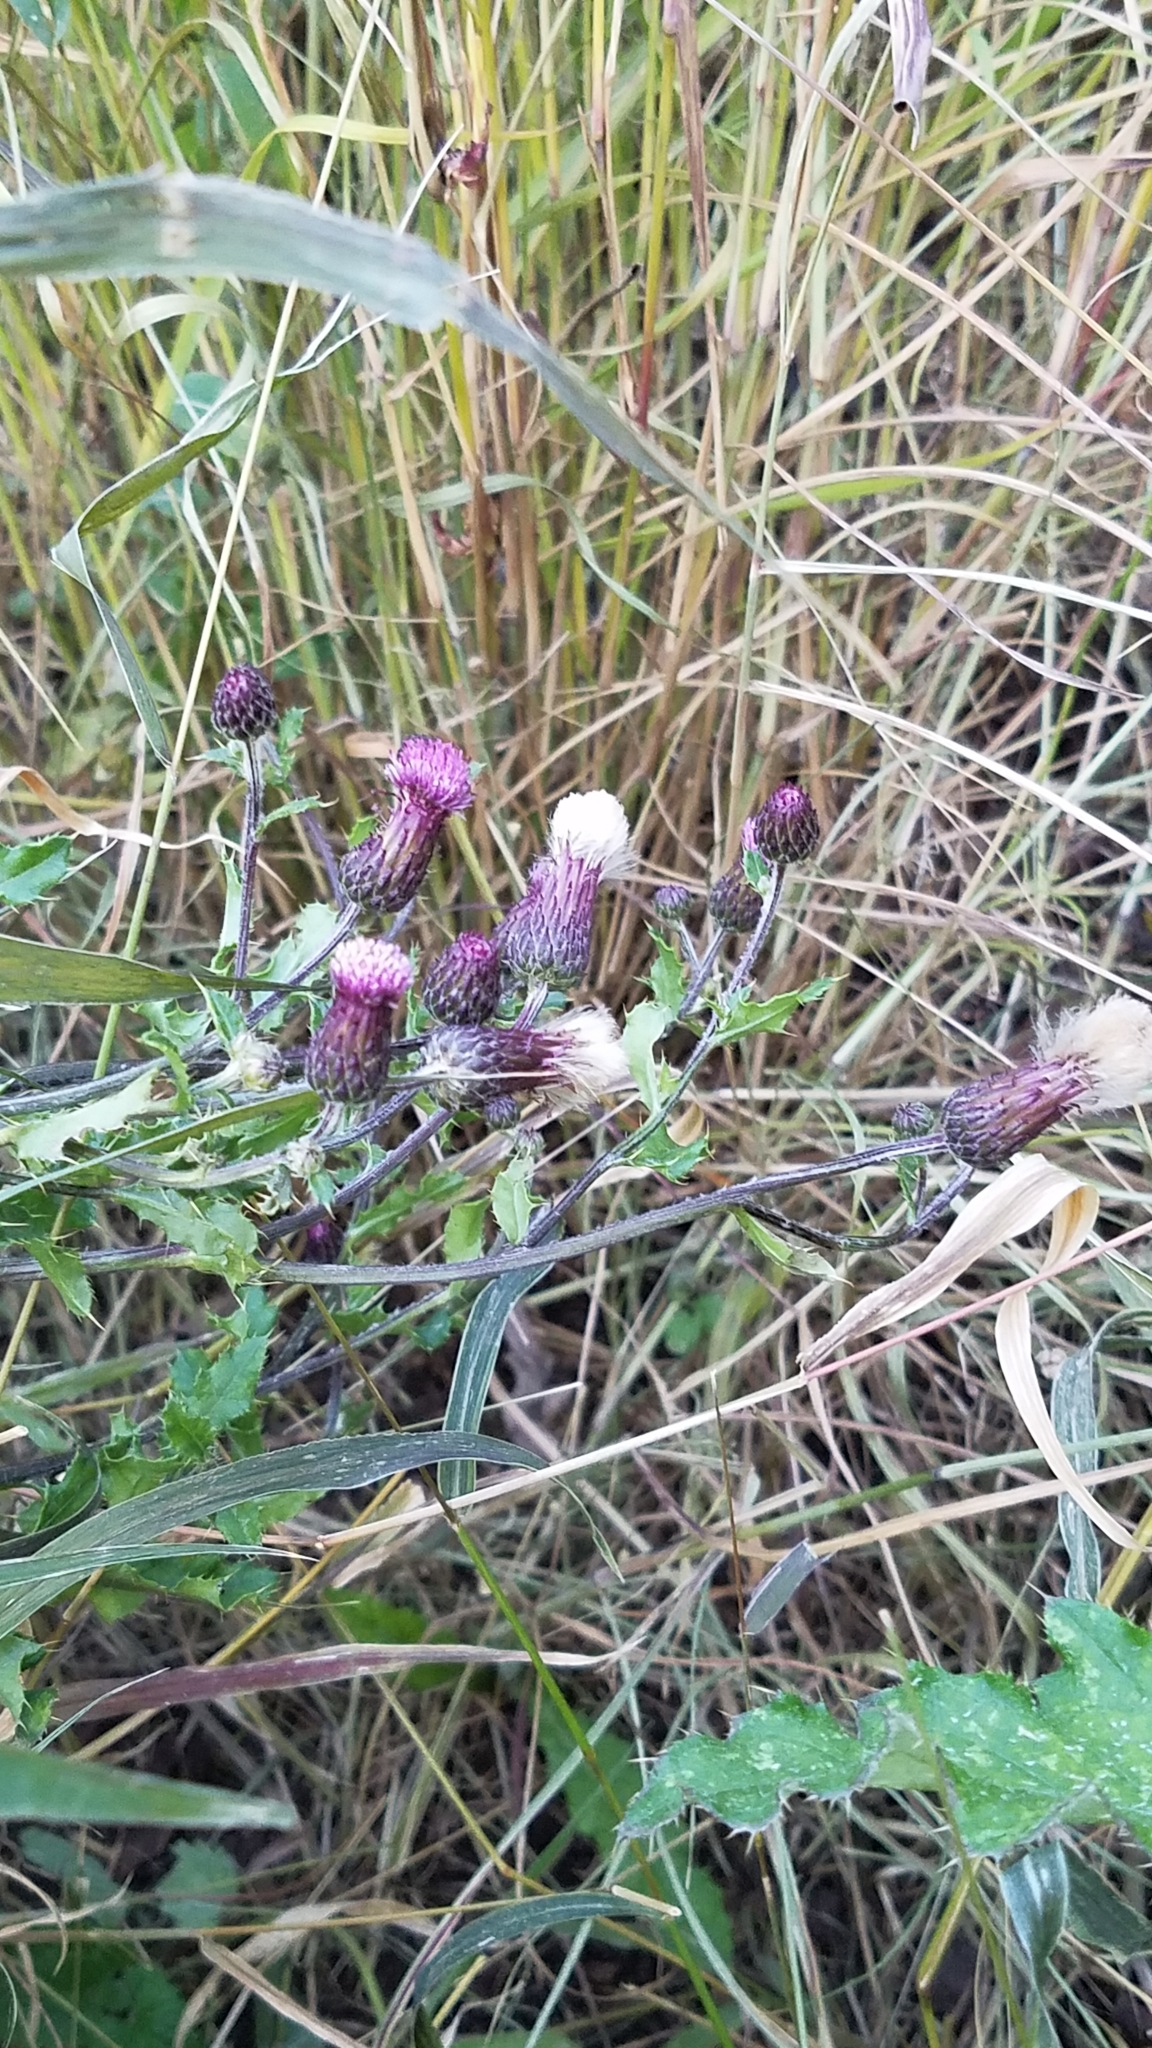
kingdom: Plantae
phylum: Tracheophyta
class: Magnoliopsida
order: Asterales
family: Asteraceae
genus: Cirsium
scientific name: Cirsium arvense
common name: Creeping thistle
